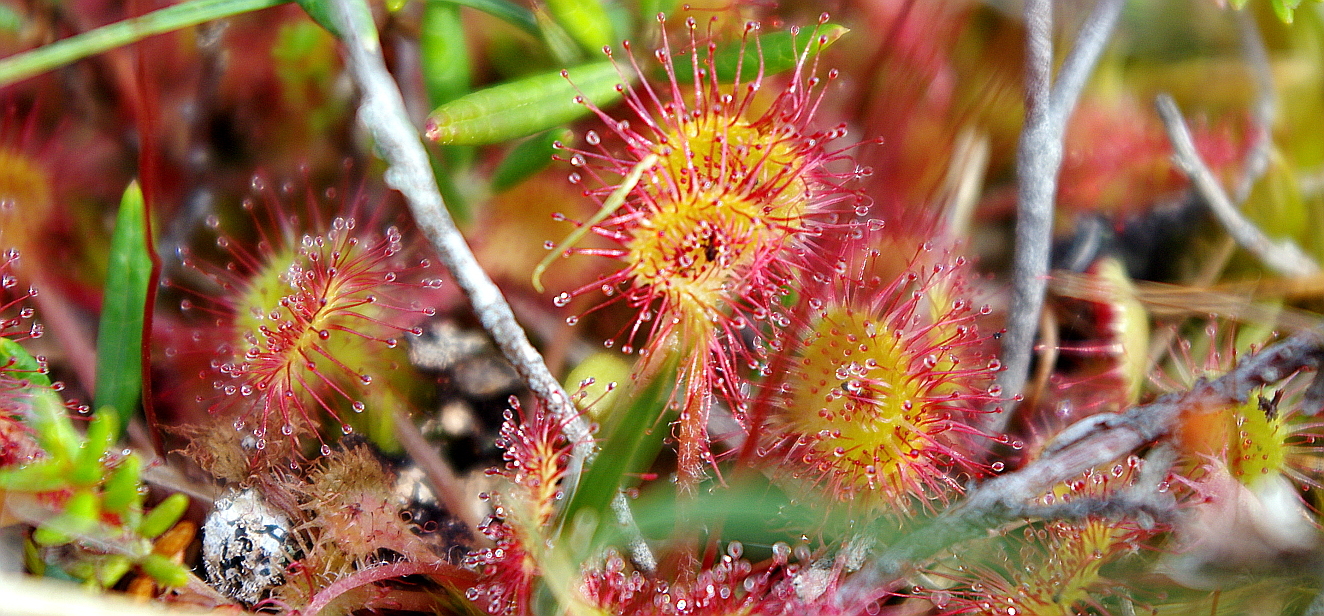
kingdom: Plantae
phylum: Tracheophyta
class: Magnoliopsida
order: Caryophyllales
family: Droseraceae
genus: Drosera
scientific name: Drosera rotundifolia
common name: Round-leaved sundew
